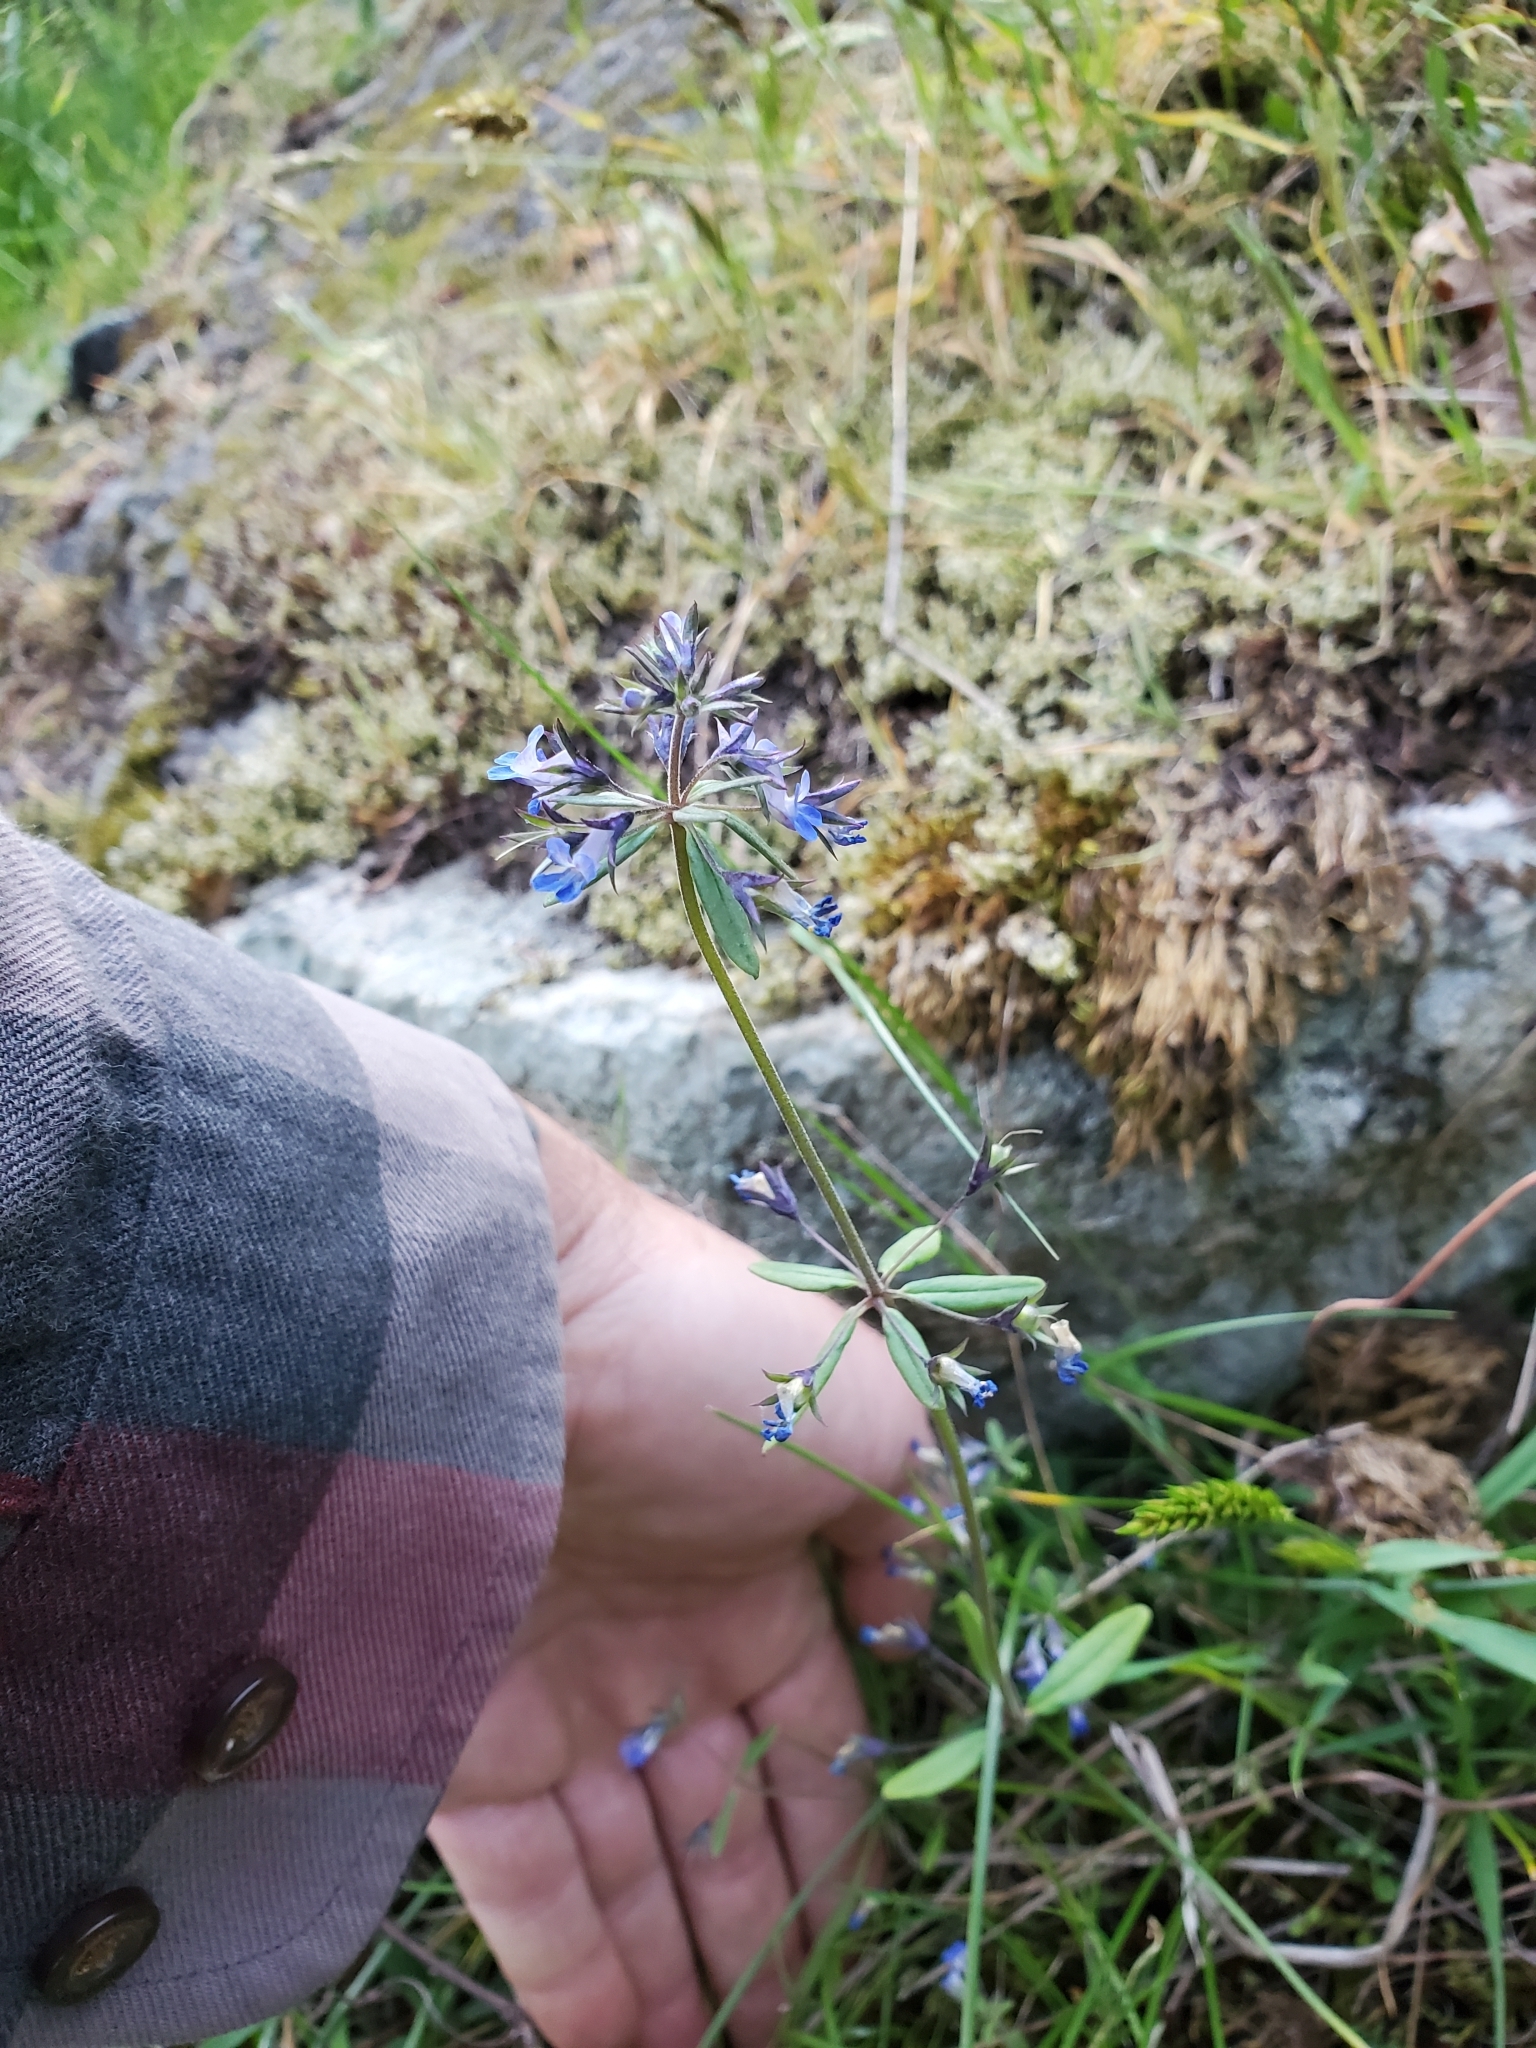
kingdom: Plantae
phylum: Tracheophyta
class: Magnoliopsida
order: Lamiales
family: Plantaginaceae
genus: Collinsia
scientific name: Collinsia grandiflora
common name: Large-flower blue-eyed-mary
